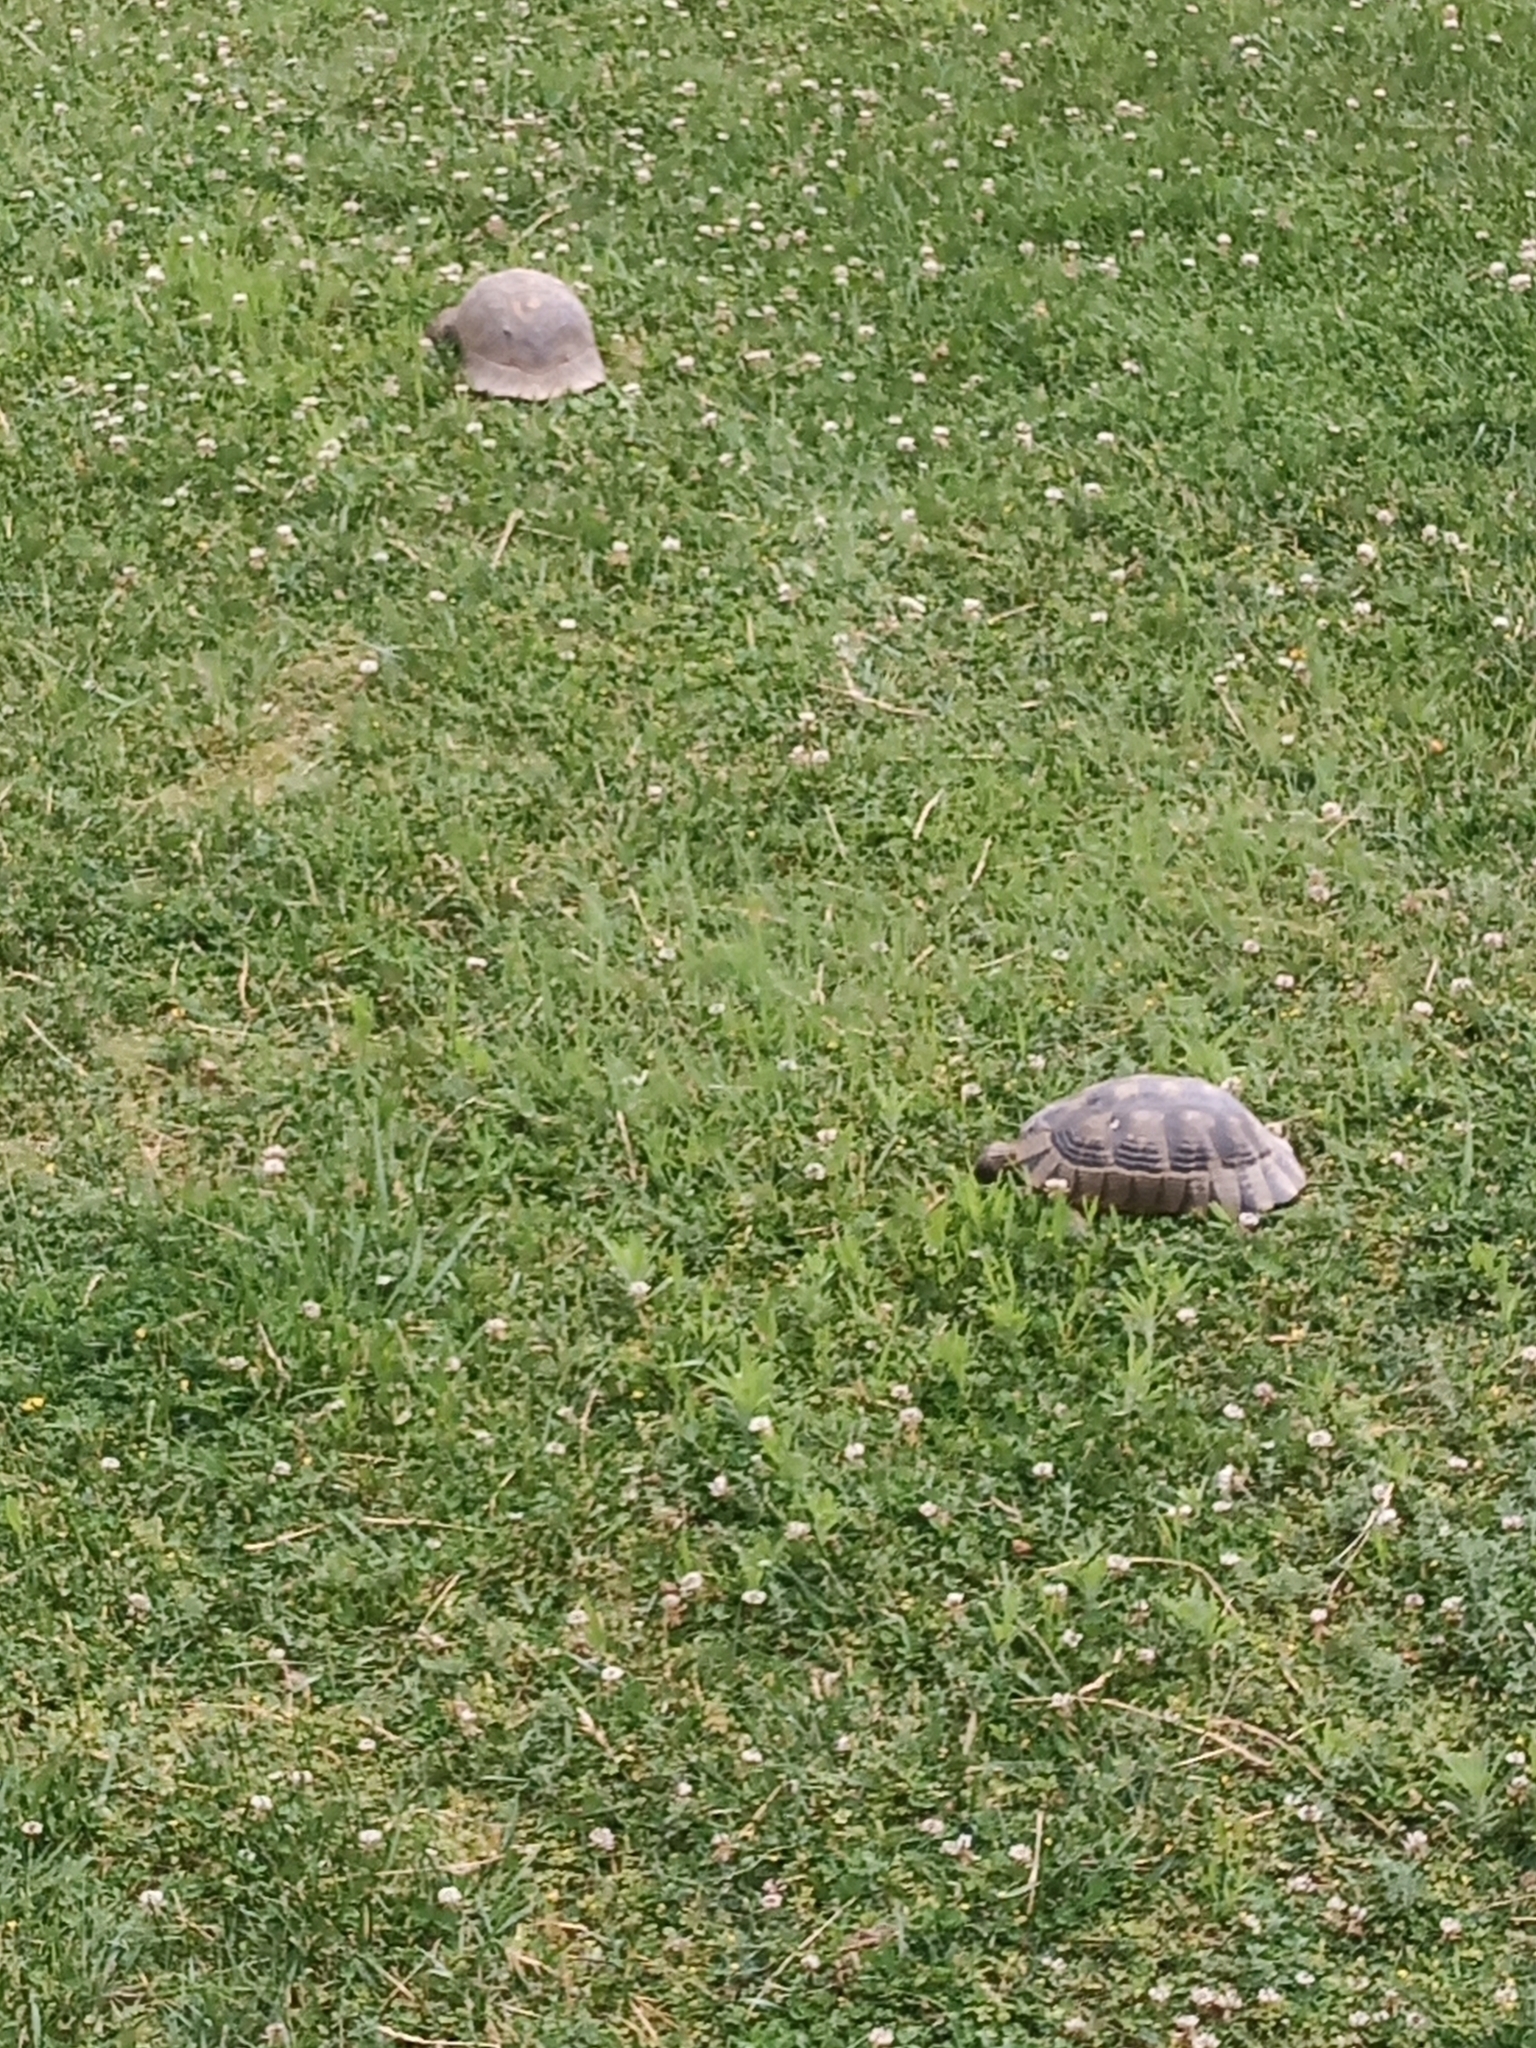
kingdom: Animalia
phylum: Chordata
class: Testudines
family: Testudinidae
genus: Testudo
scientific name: Testudo marginata
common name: Marginated tortoise
